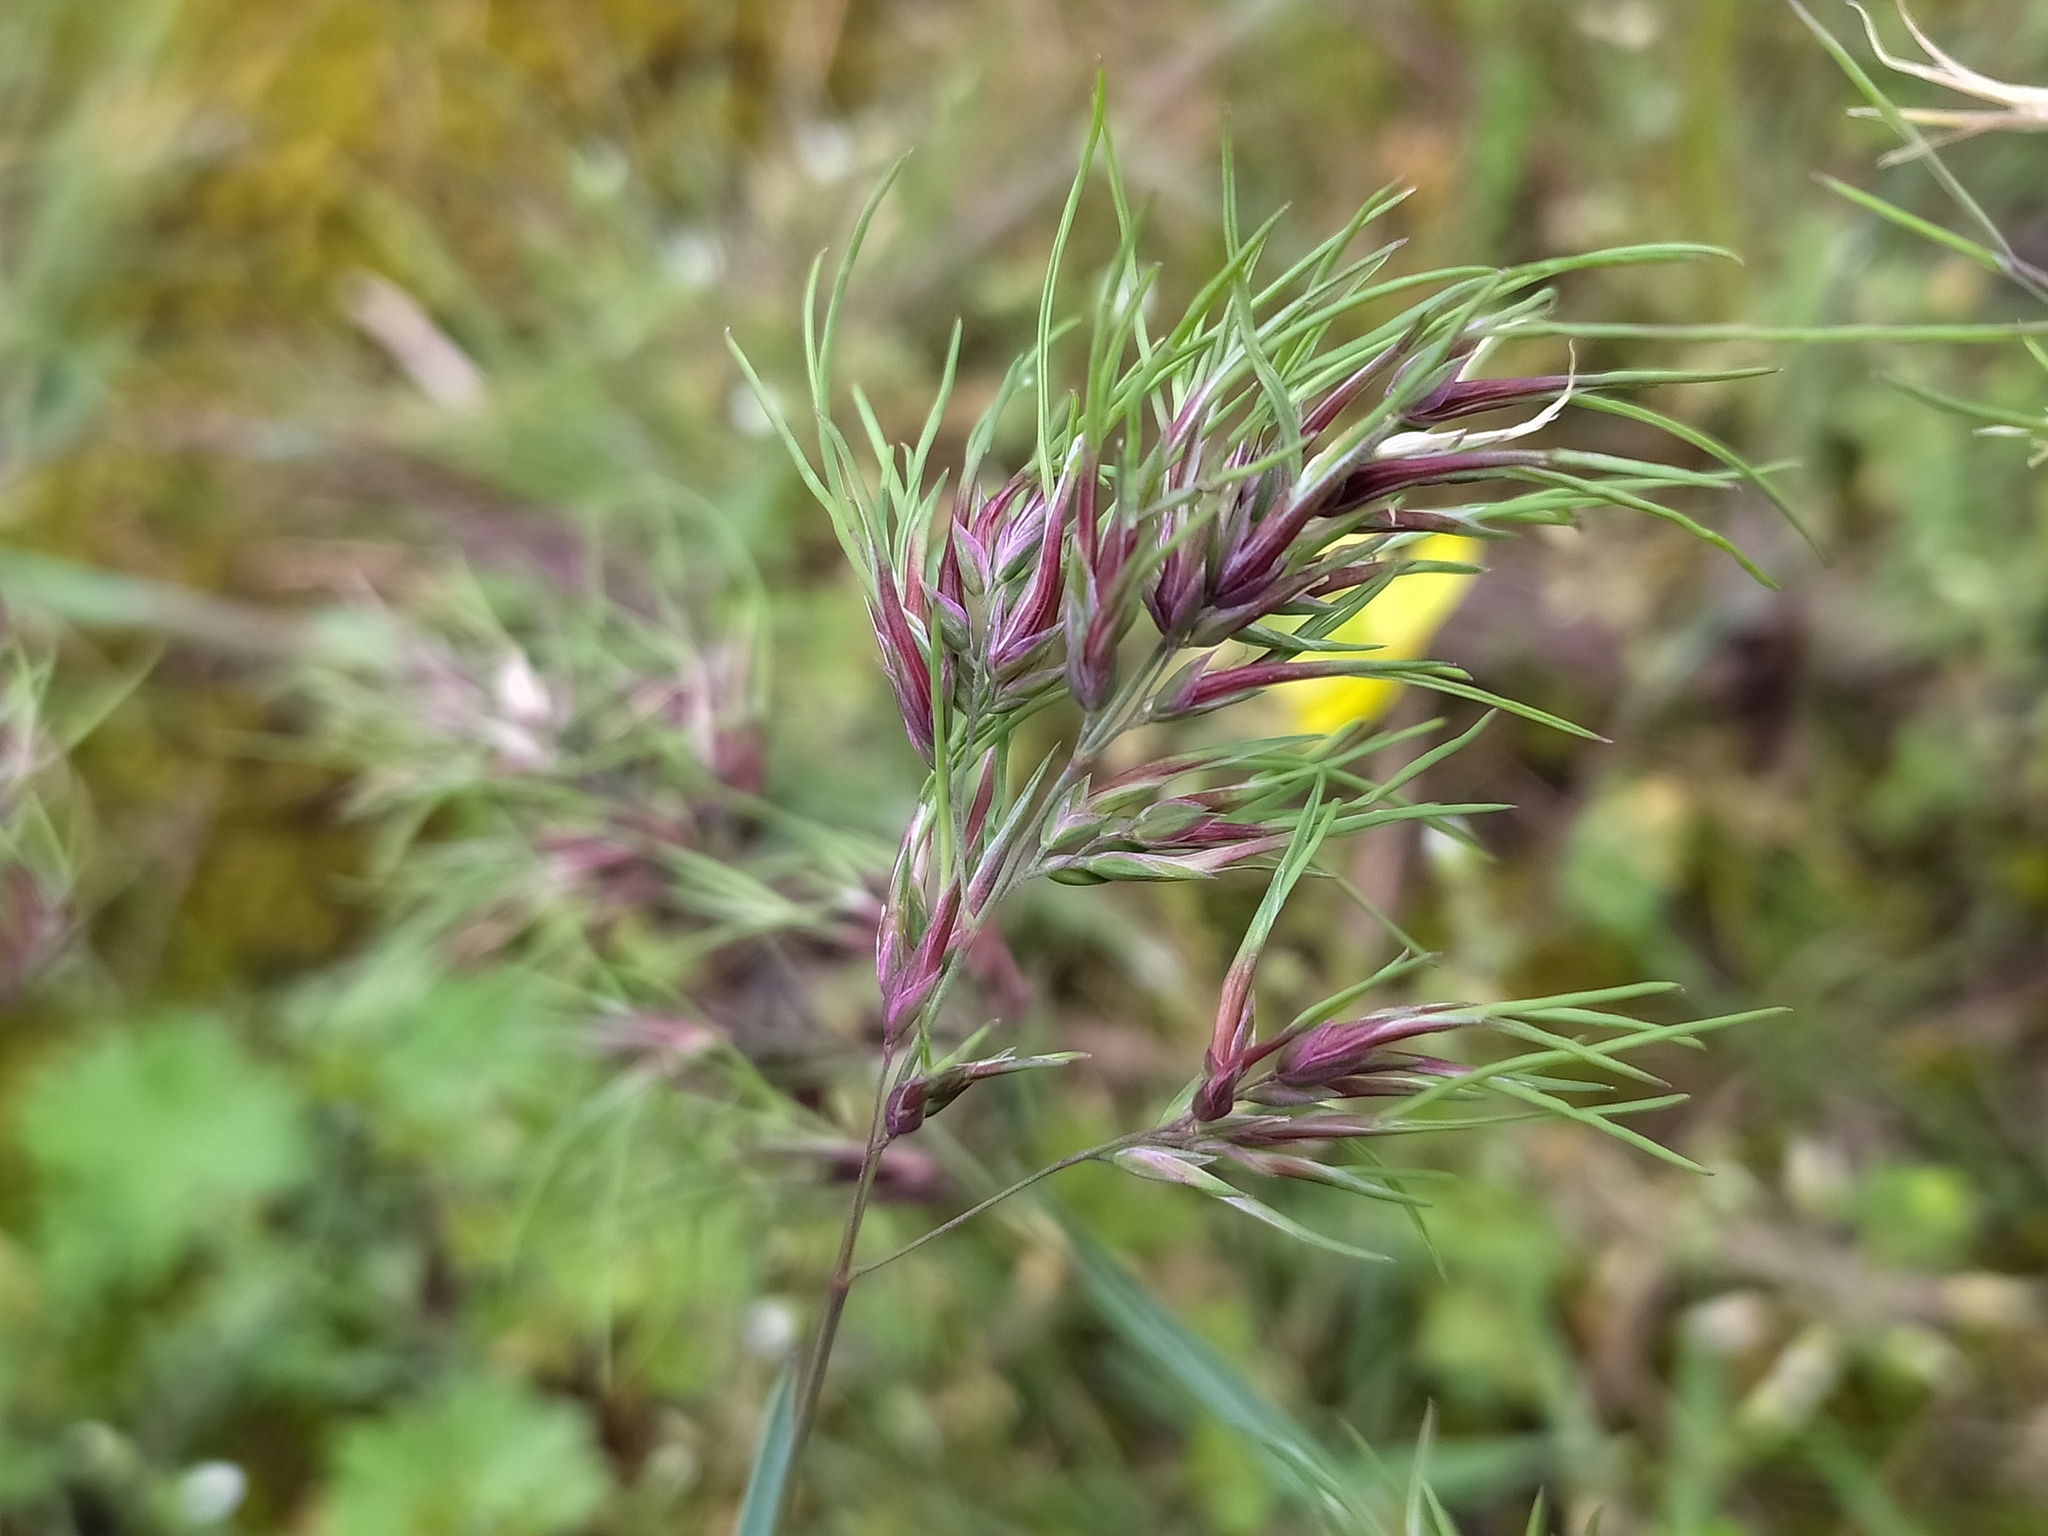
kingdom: Plantae
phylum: Tracheophyta
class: Liliopsida
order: Poales
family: Poaceae
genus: Poa
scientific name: Poa bulbosa
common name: Bulbous bluegrass
